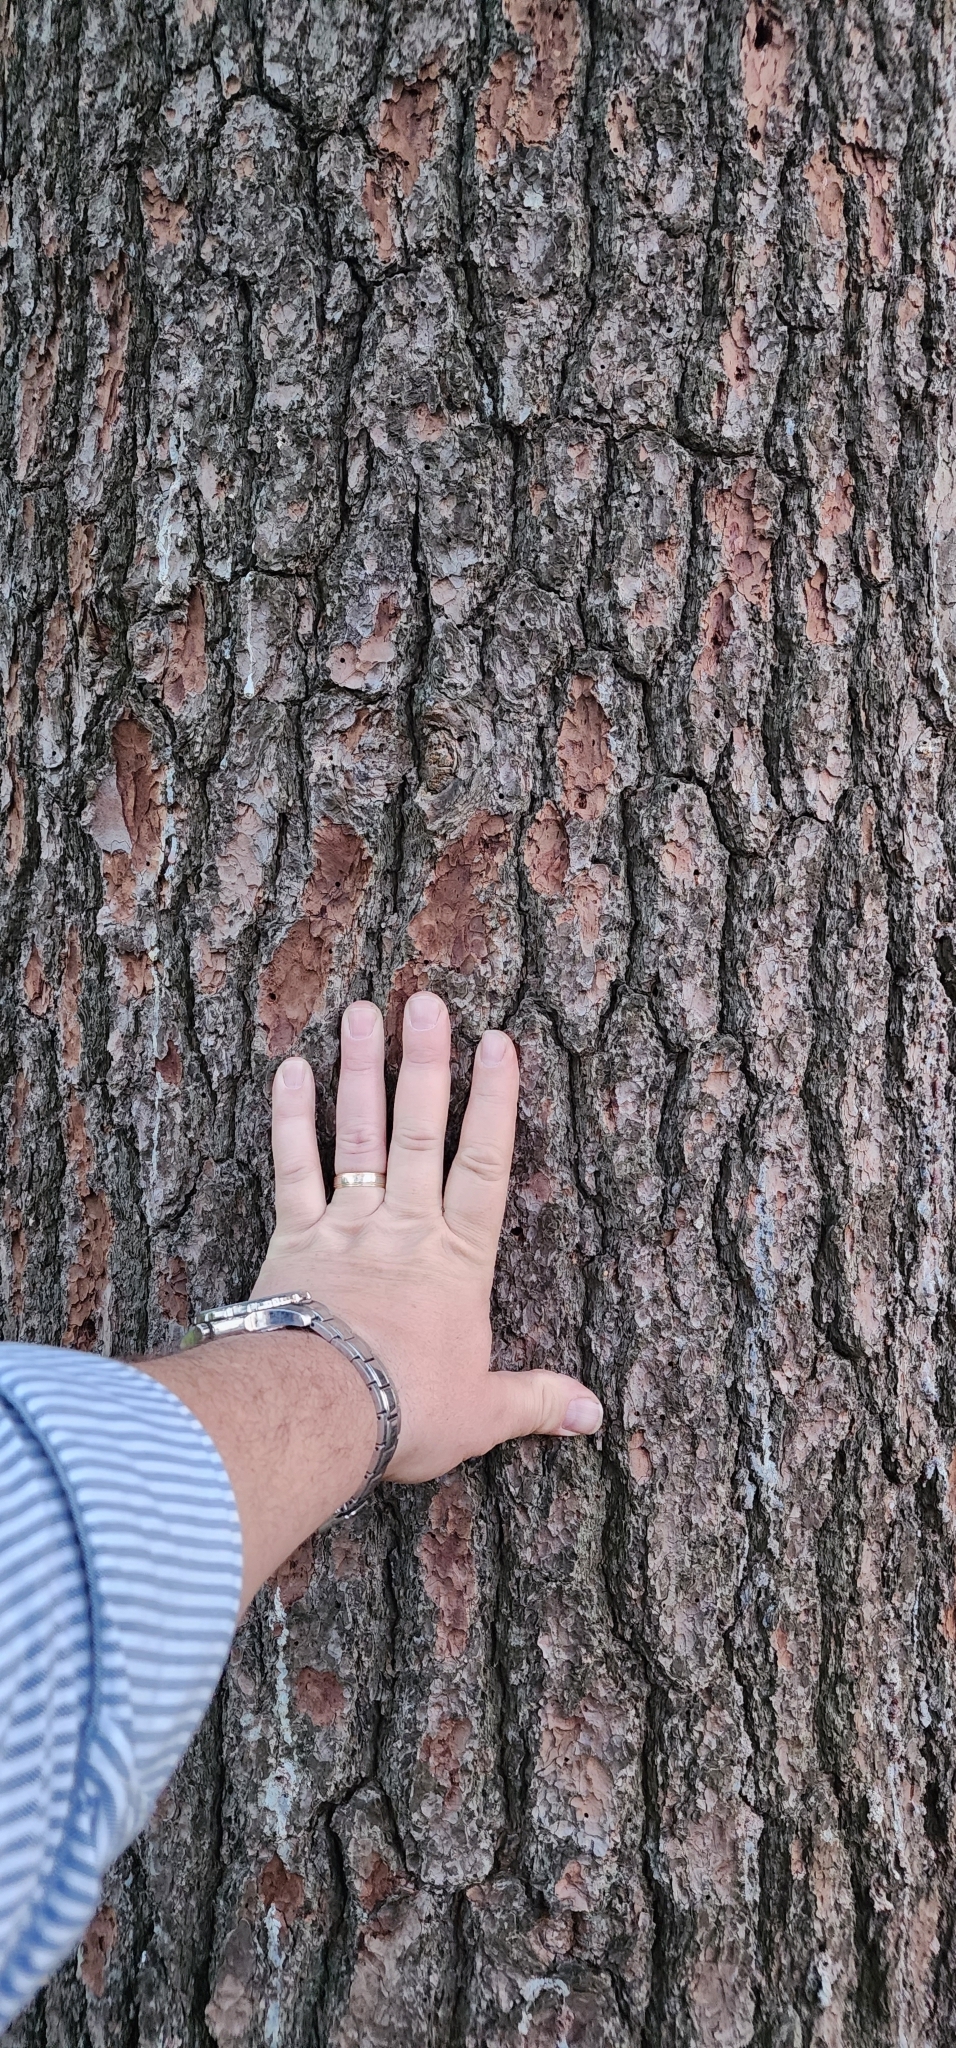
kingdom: Plantae
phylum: Tracheophyta
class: Pinopsida
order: Pinales
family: Pinaceae
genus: Pinus
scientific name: Pinus strobus
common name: Weymouth pine
